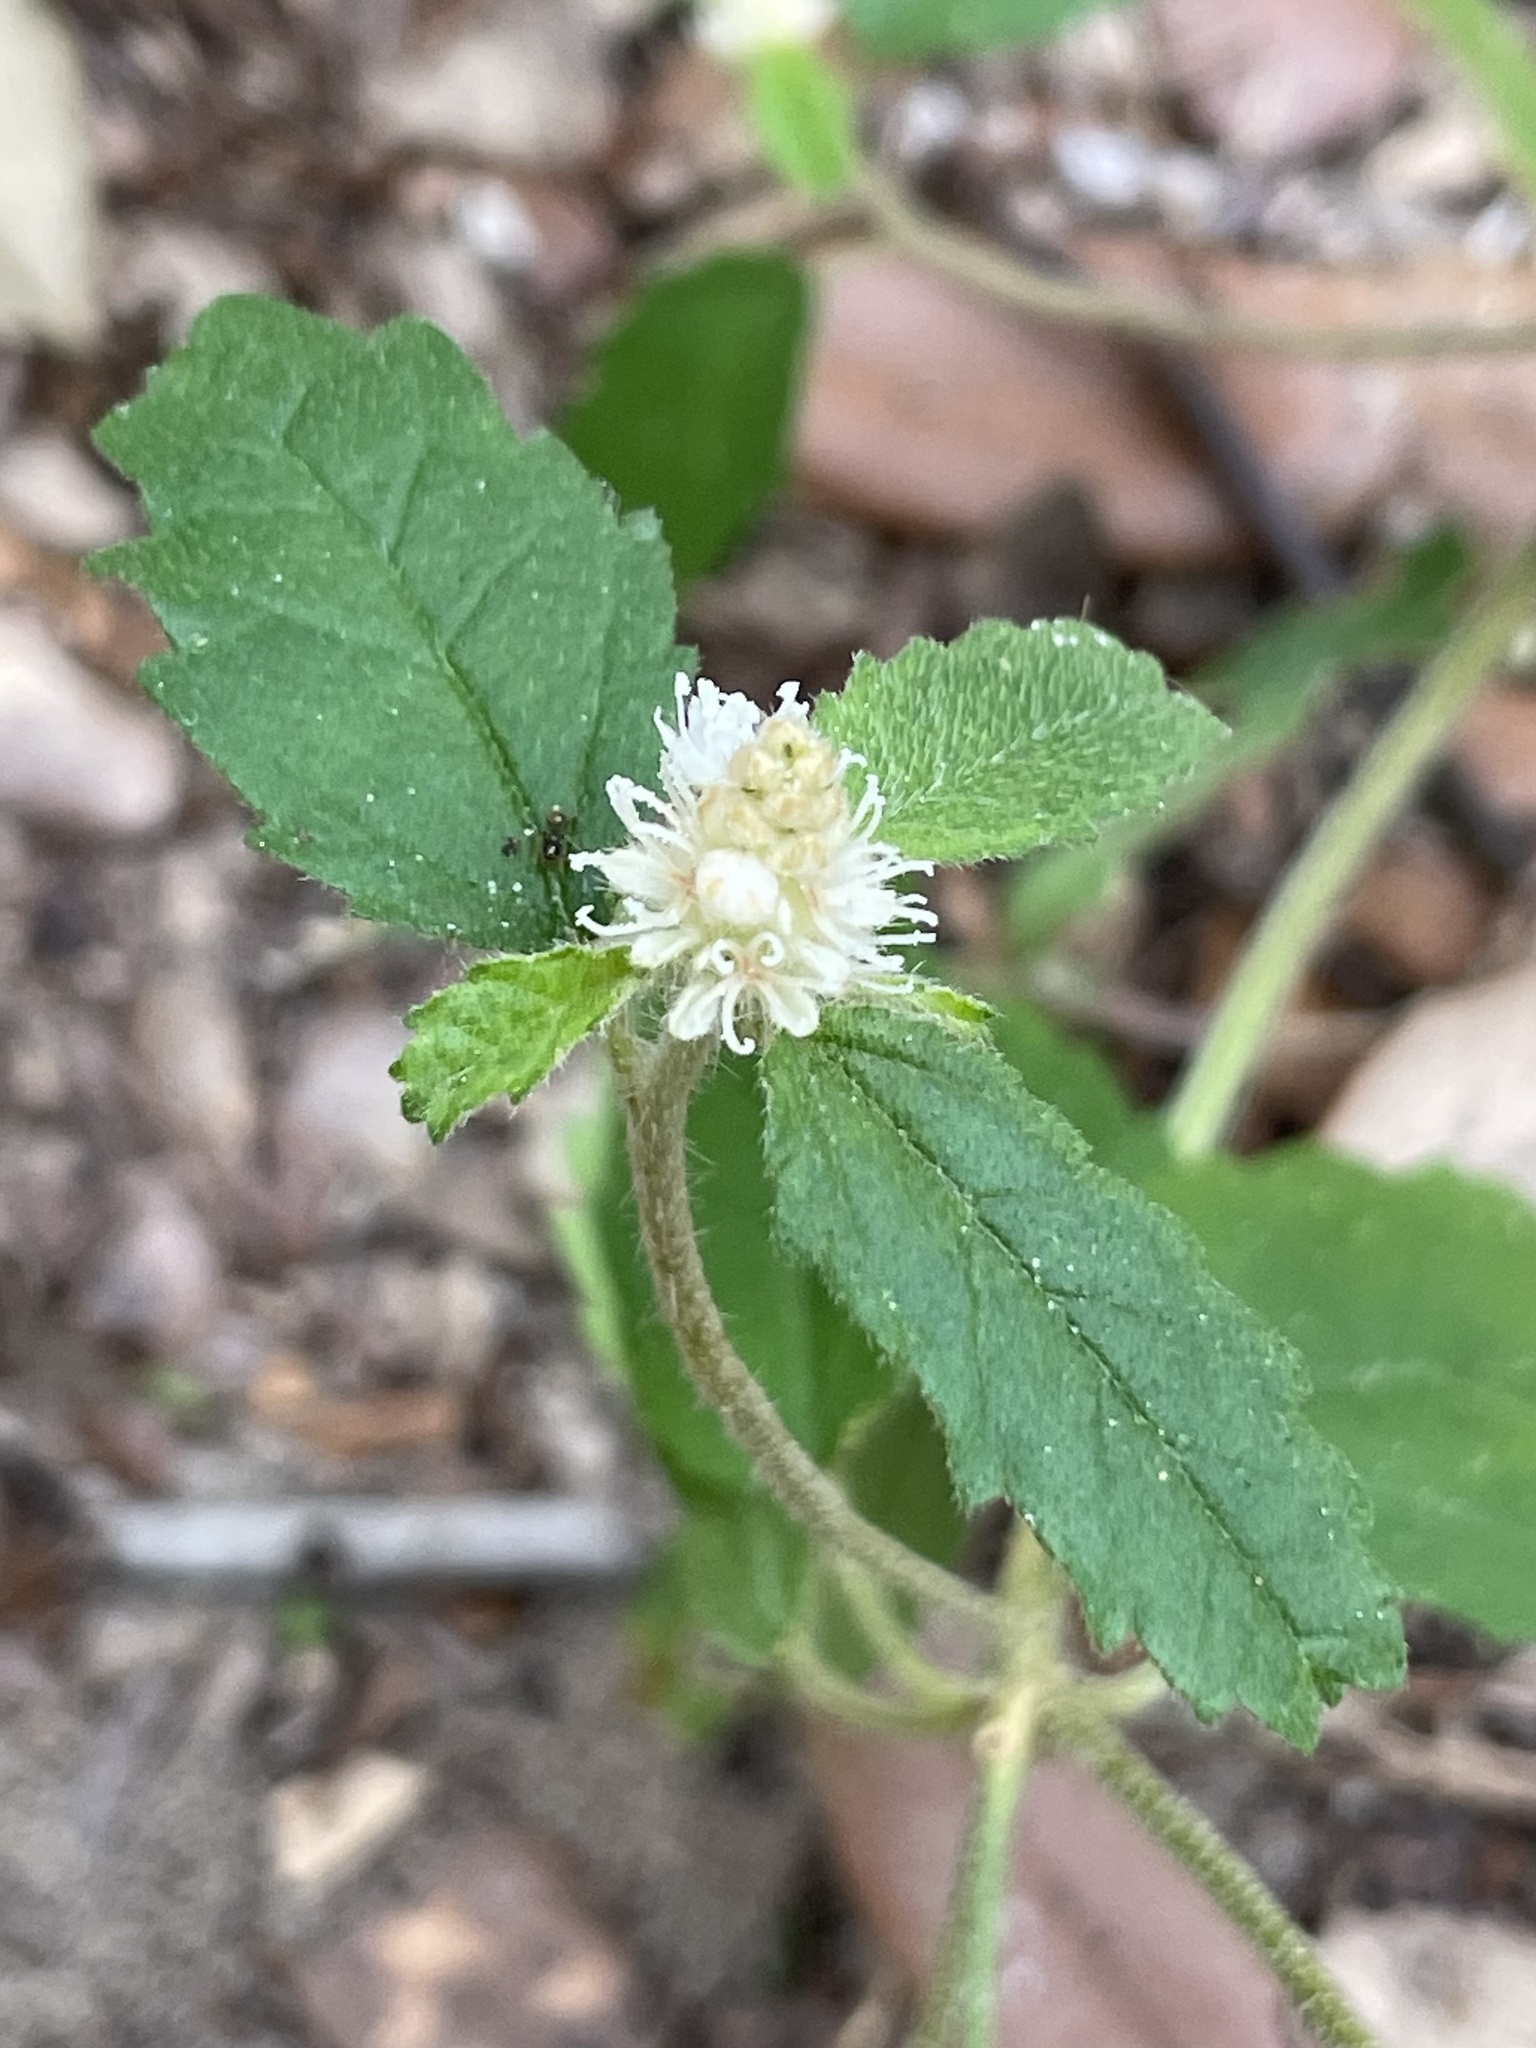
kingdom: Plantae
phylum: Tracheophyta
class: Magnoliopsida
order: Malpighiales
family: Euphorbiaceae
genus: Croton
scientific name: Croton glandulosus
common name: Tropic croton
